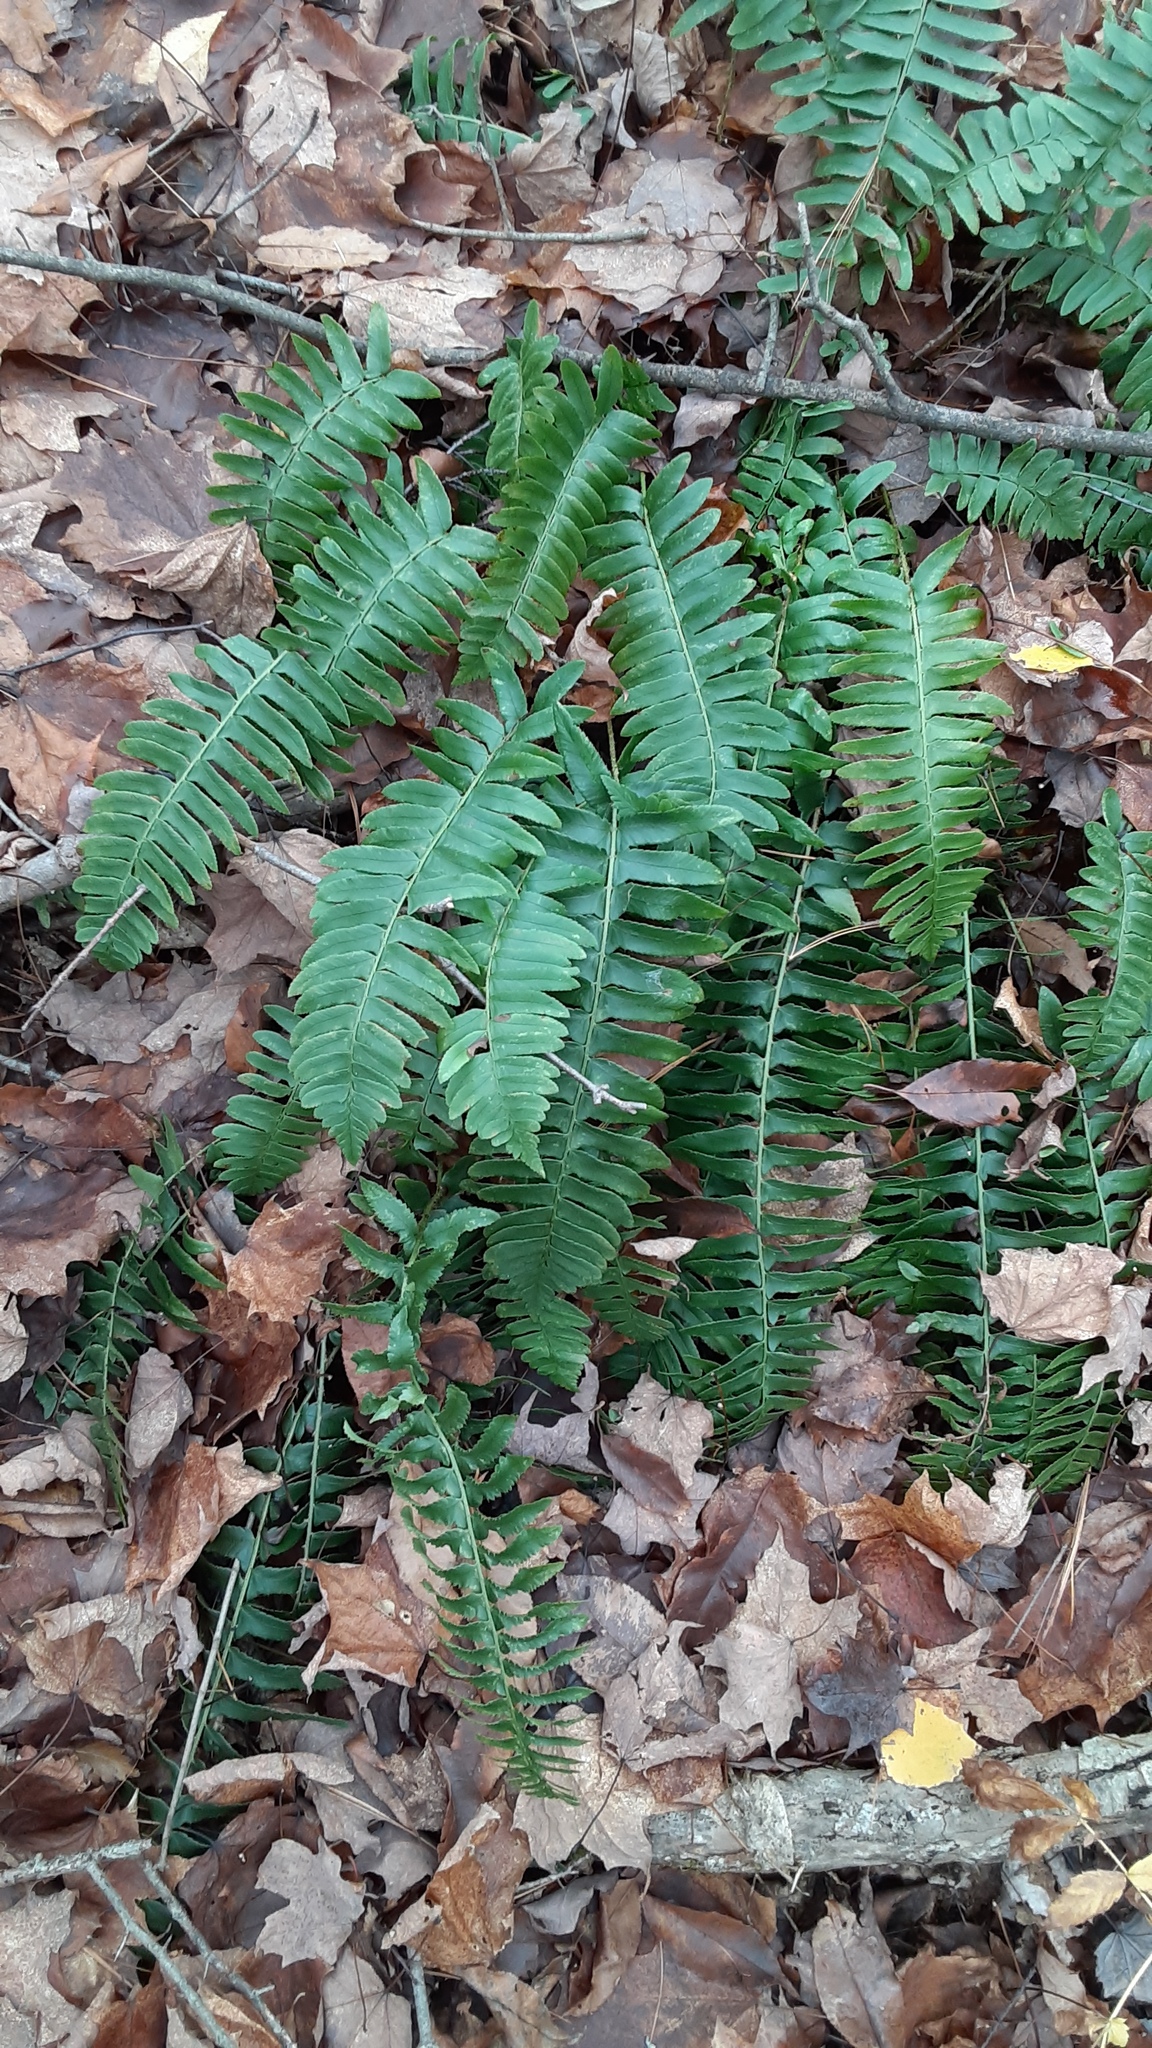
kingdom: Plantae
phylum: Tracheophyta
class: Polypodiopsida
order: Polypodiales
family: Dryopteridaceae
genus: Polystichum
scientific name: Polystichum acrostichoides
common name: Christmas fern
